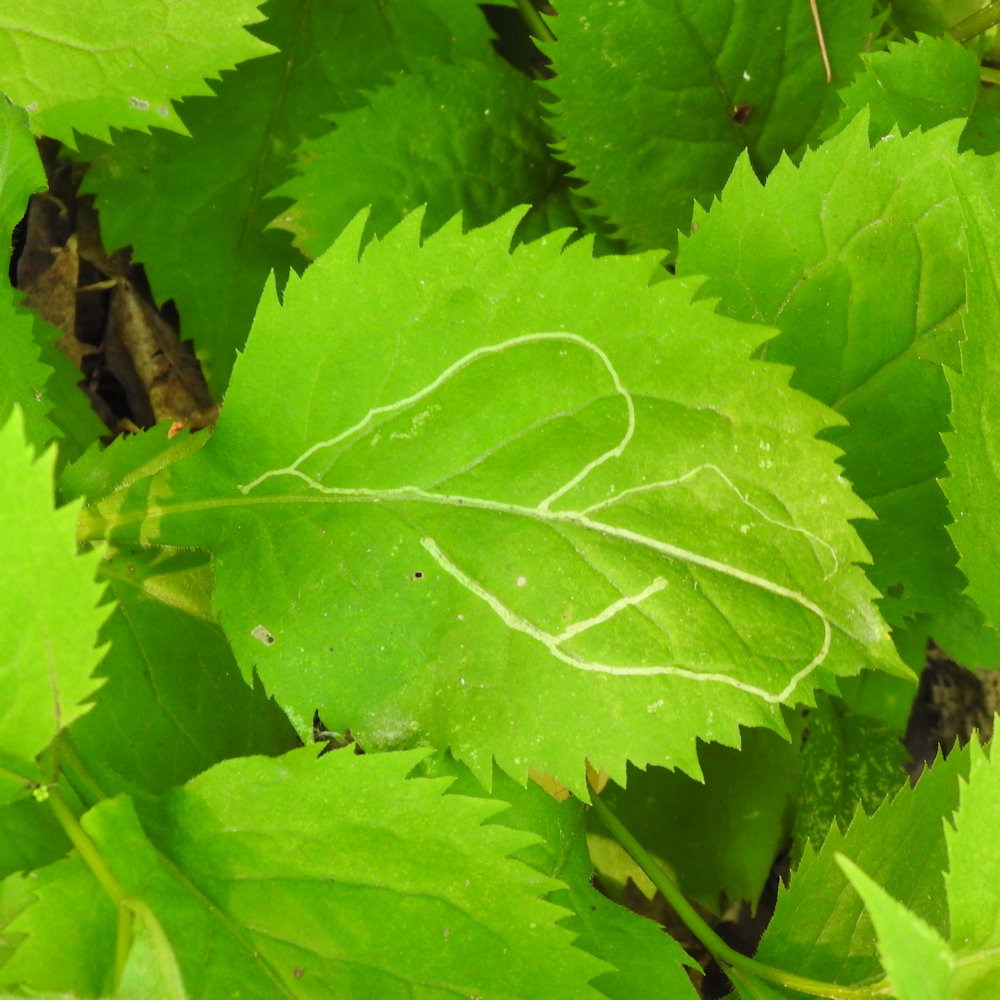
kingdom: Animalia
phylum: Arthropoda
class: Insecta
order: Diptera
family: Agromyzidae
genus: Ophiomyia
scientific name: Ophiomyia maura
